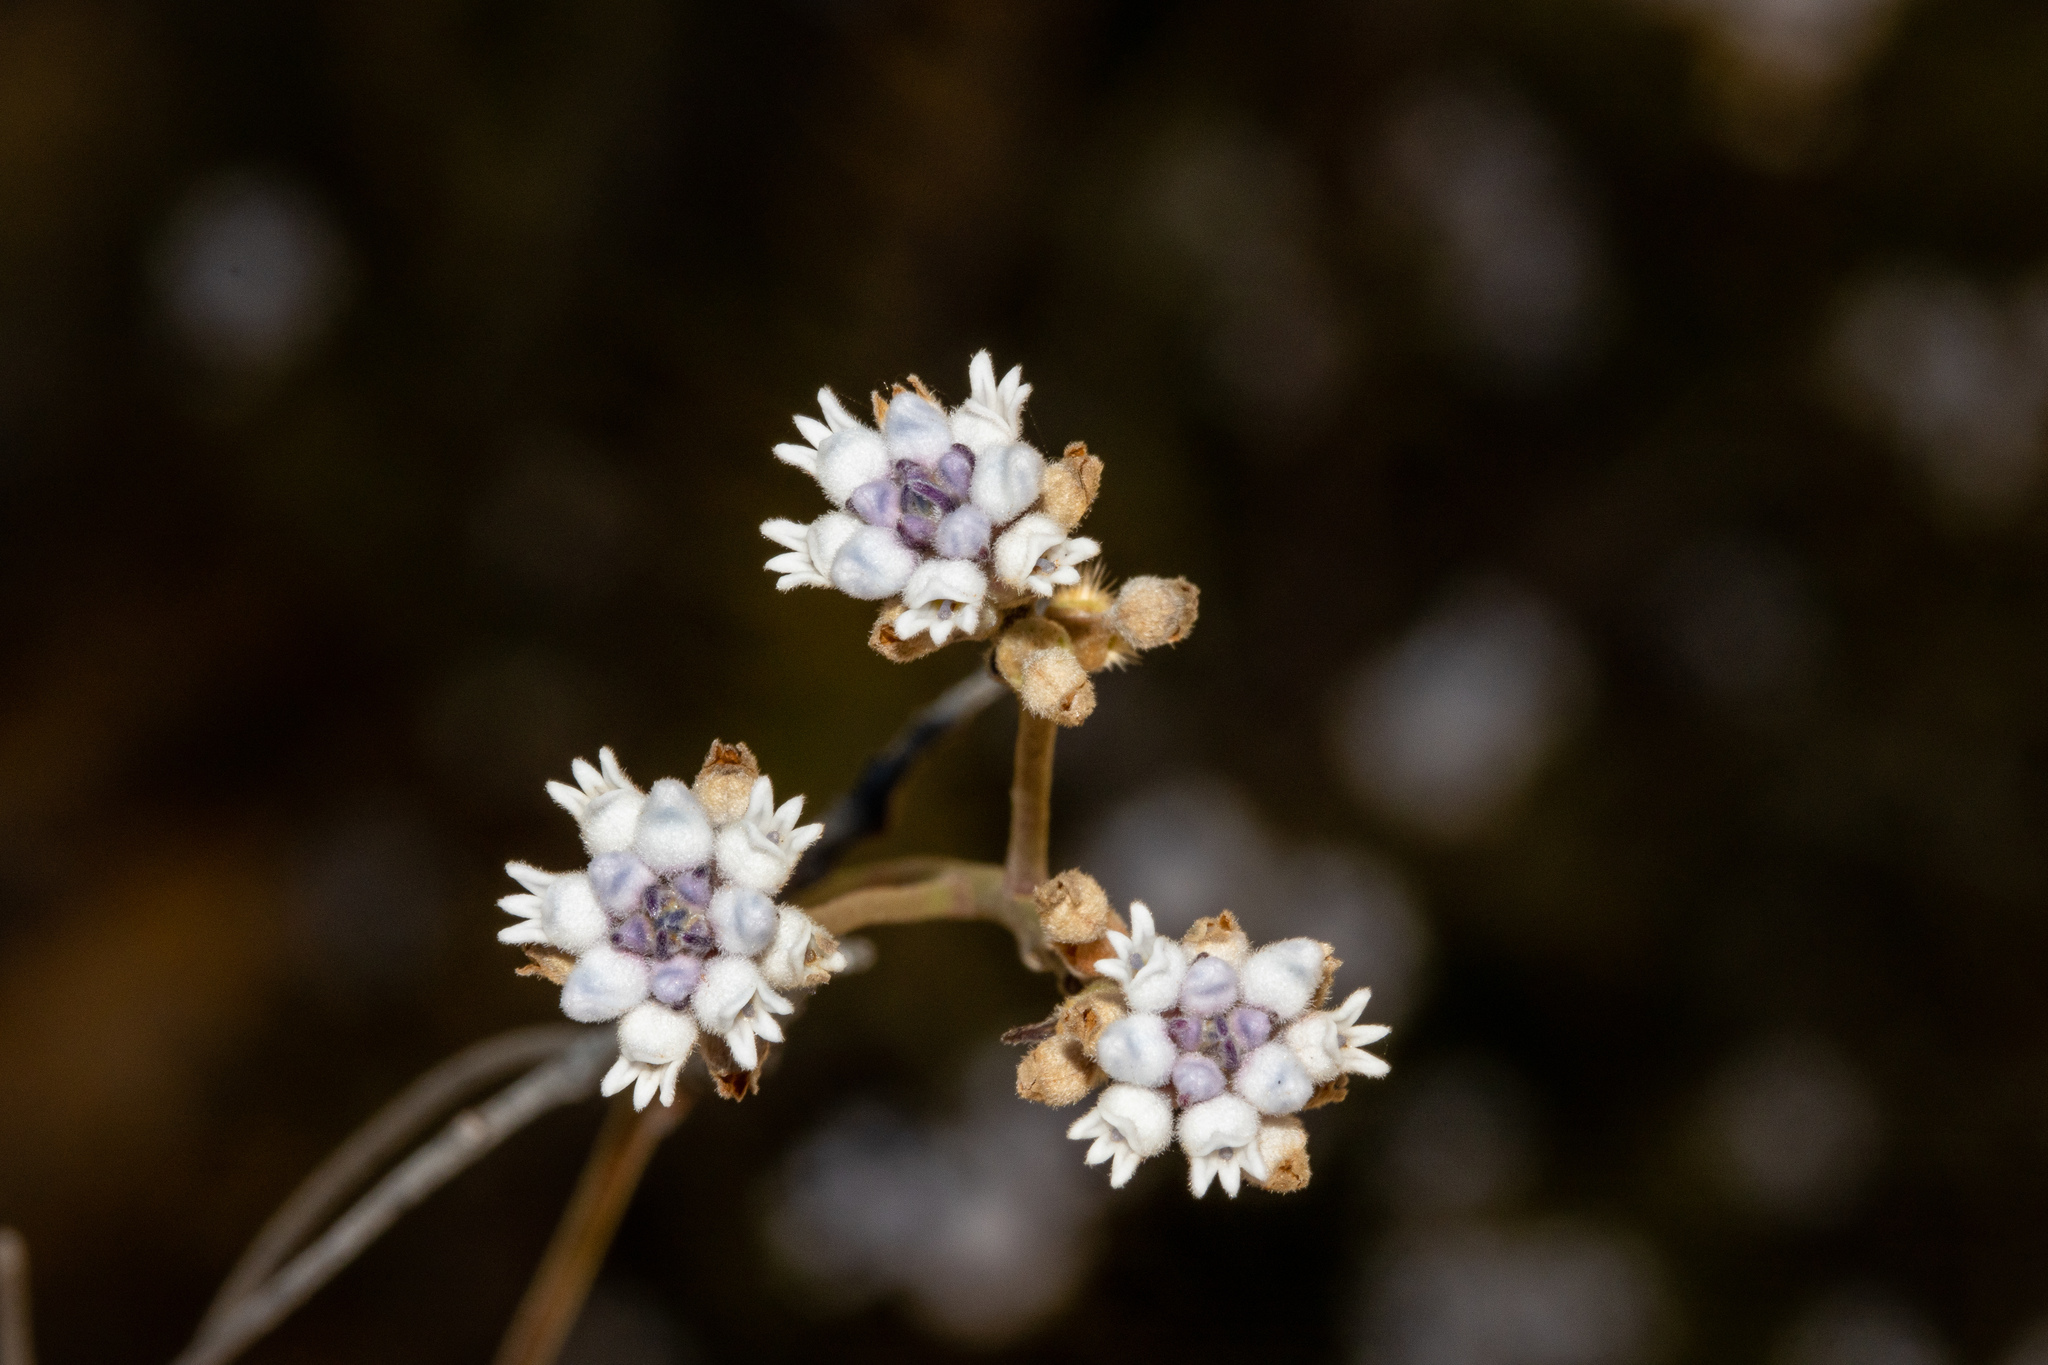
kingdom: Plantae
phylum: Tracheophyta
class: Magnoliopsida
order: Proteales
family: Proteaceae
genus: Conospermum
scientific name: Conospermum patens
